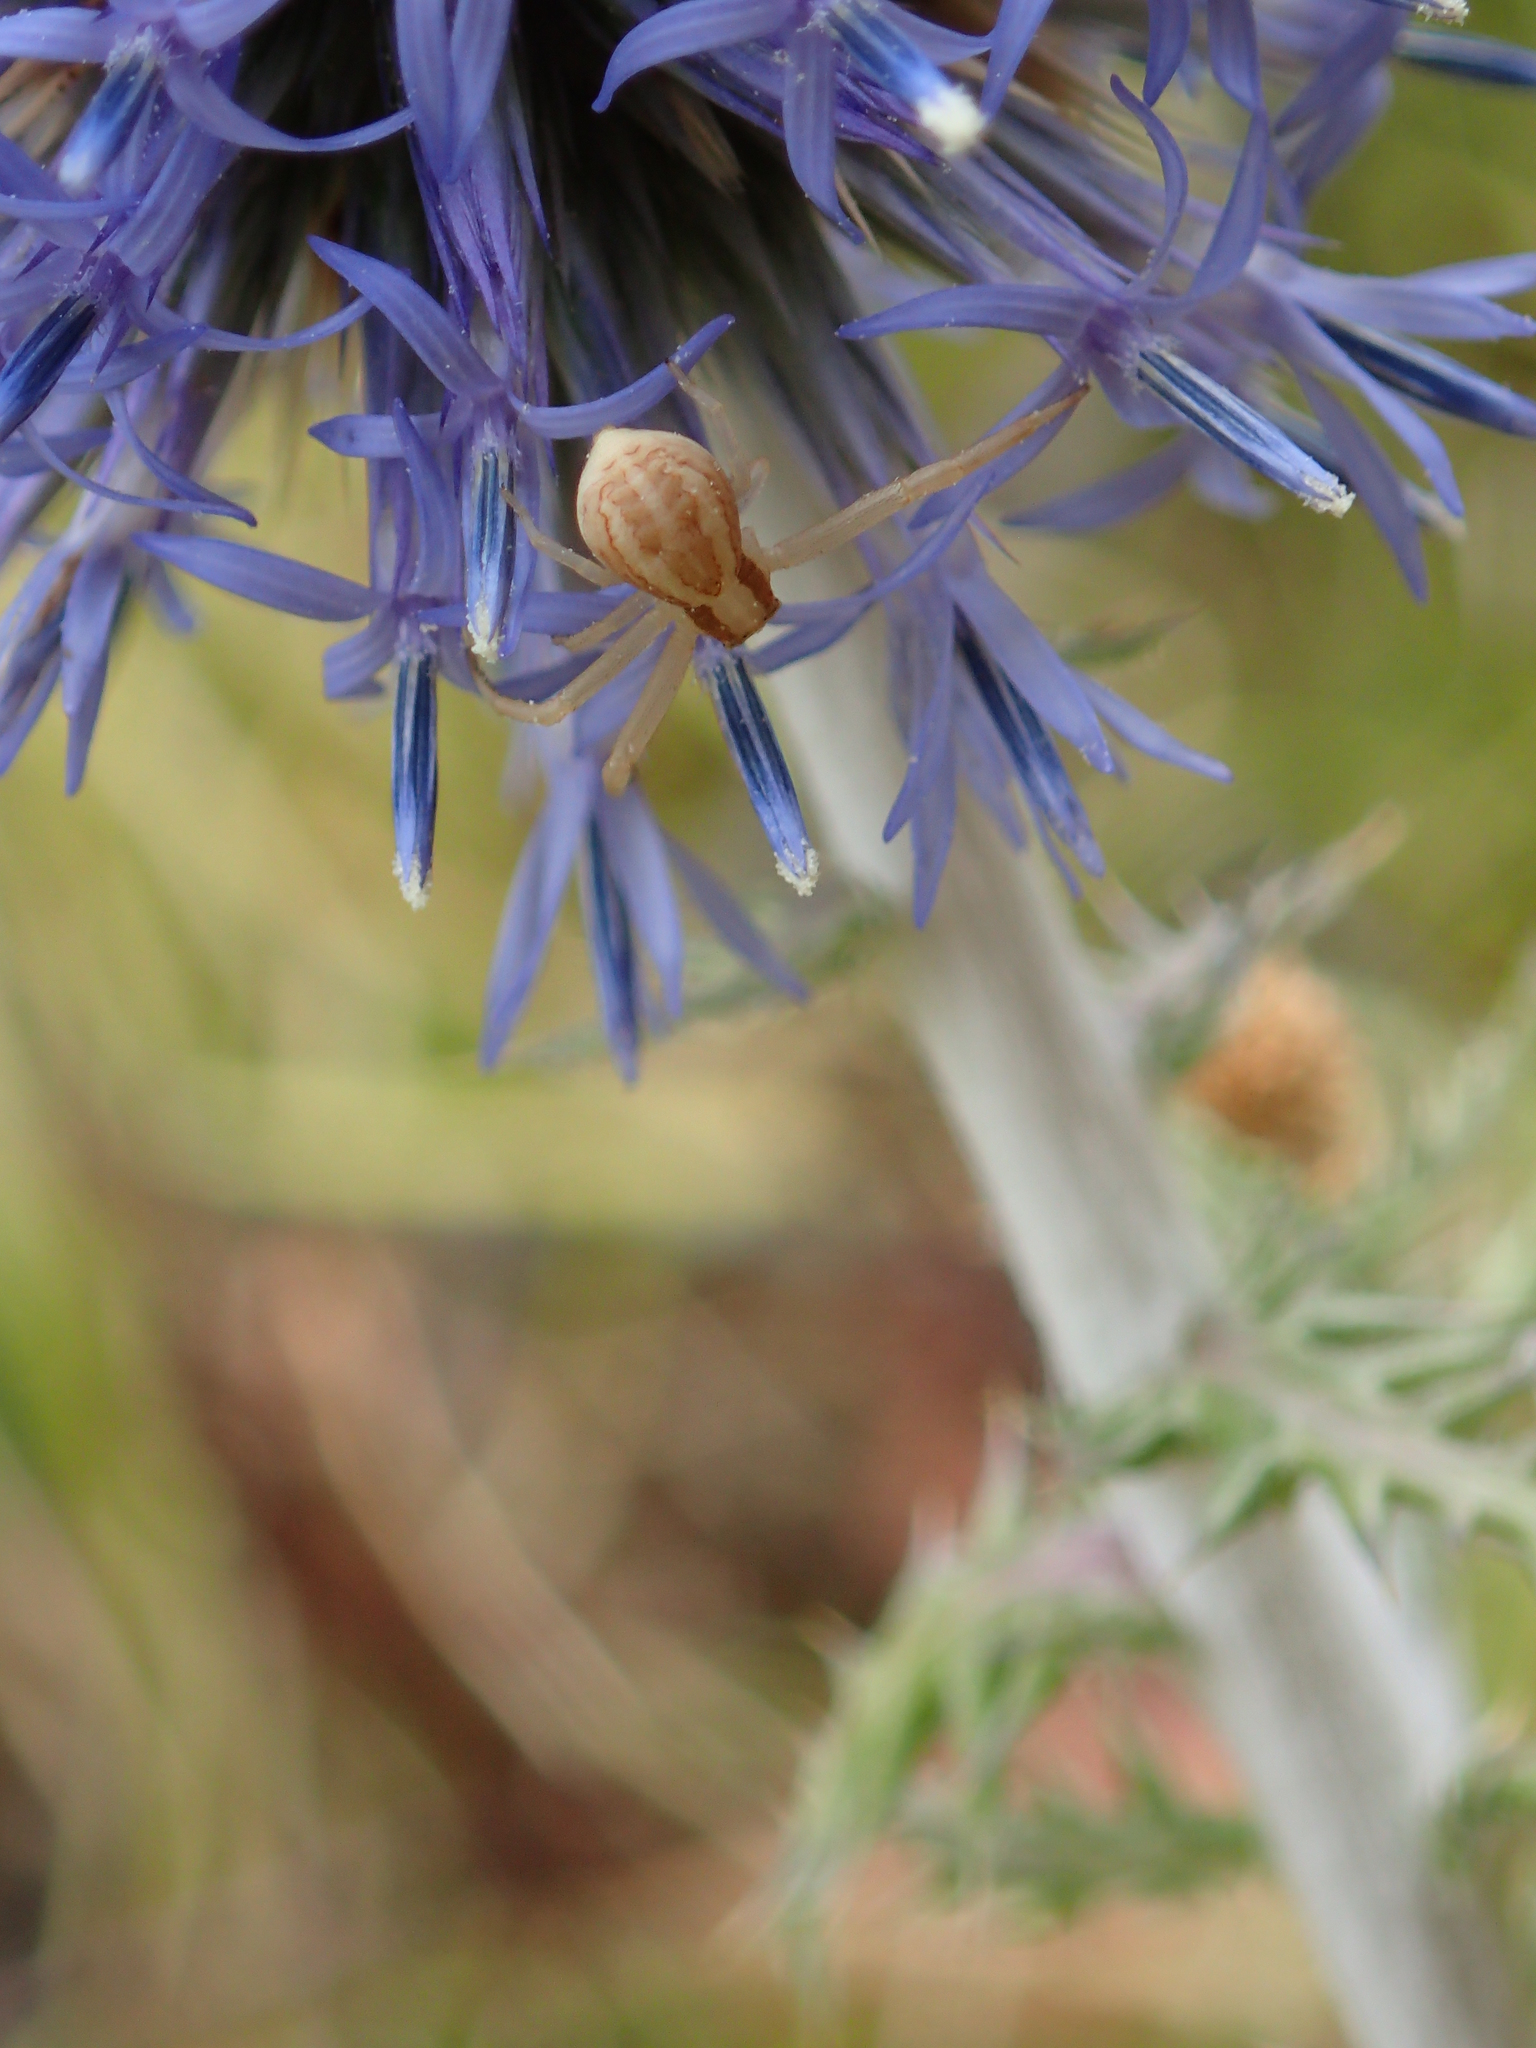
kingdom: Animalia
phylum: Arthropoda
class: Arachnida
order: Araneae
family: Thomisidae
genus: Runcinia
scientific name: Runcinia grammica
